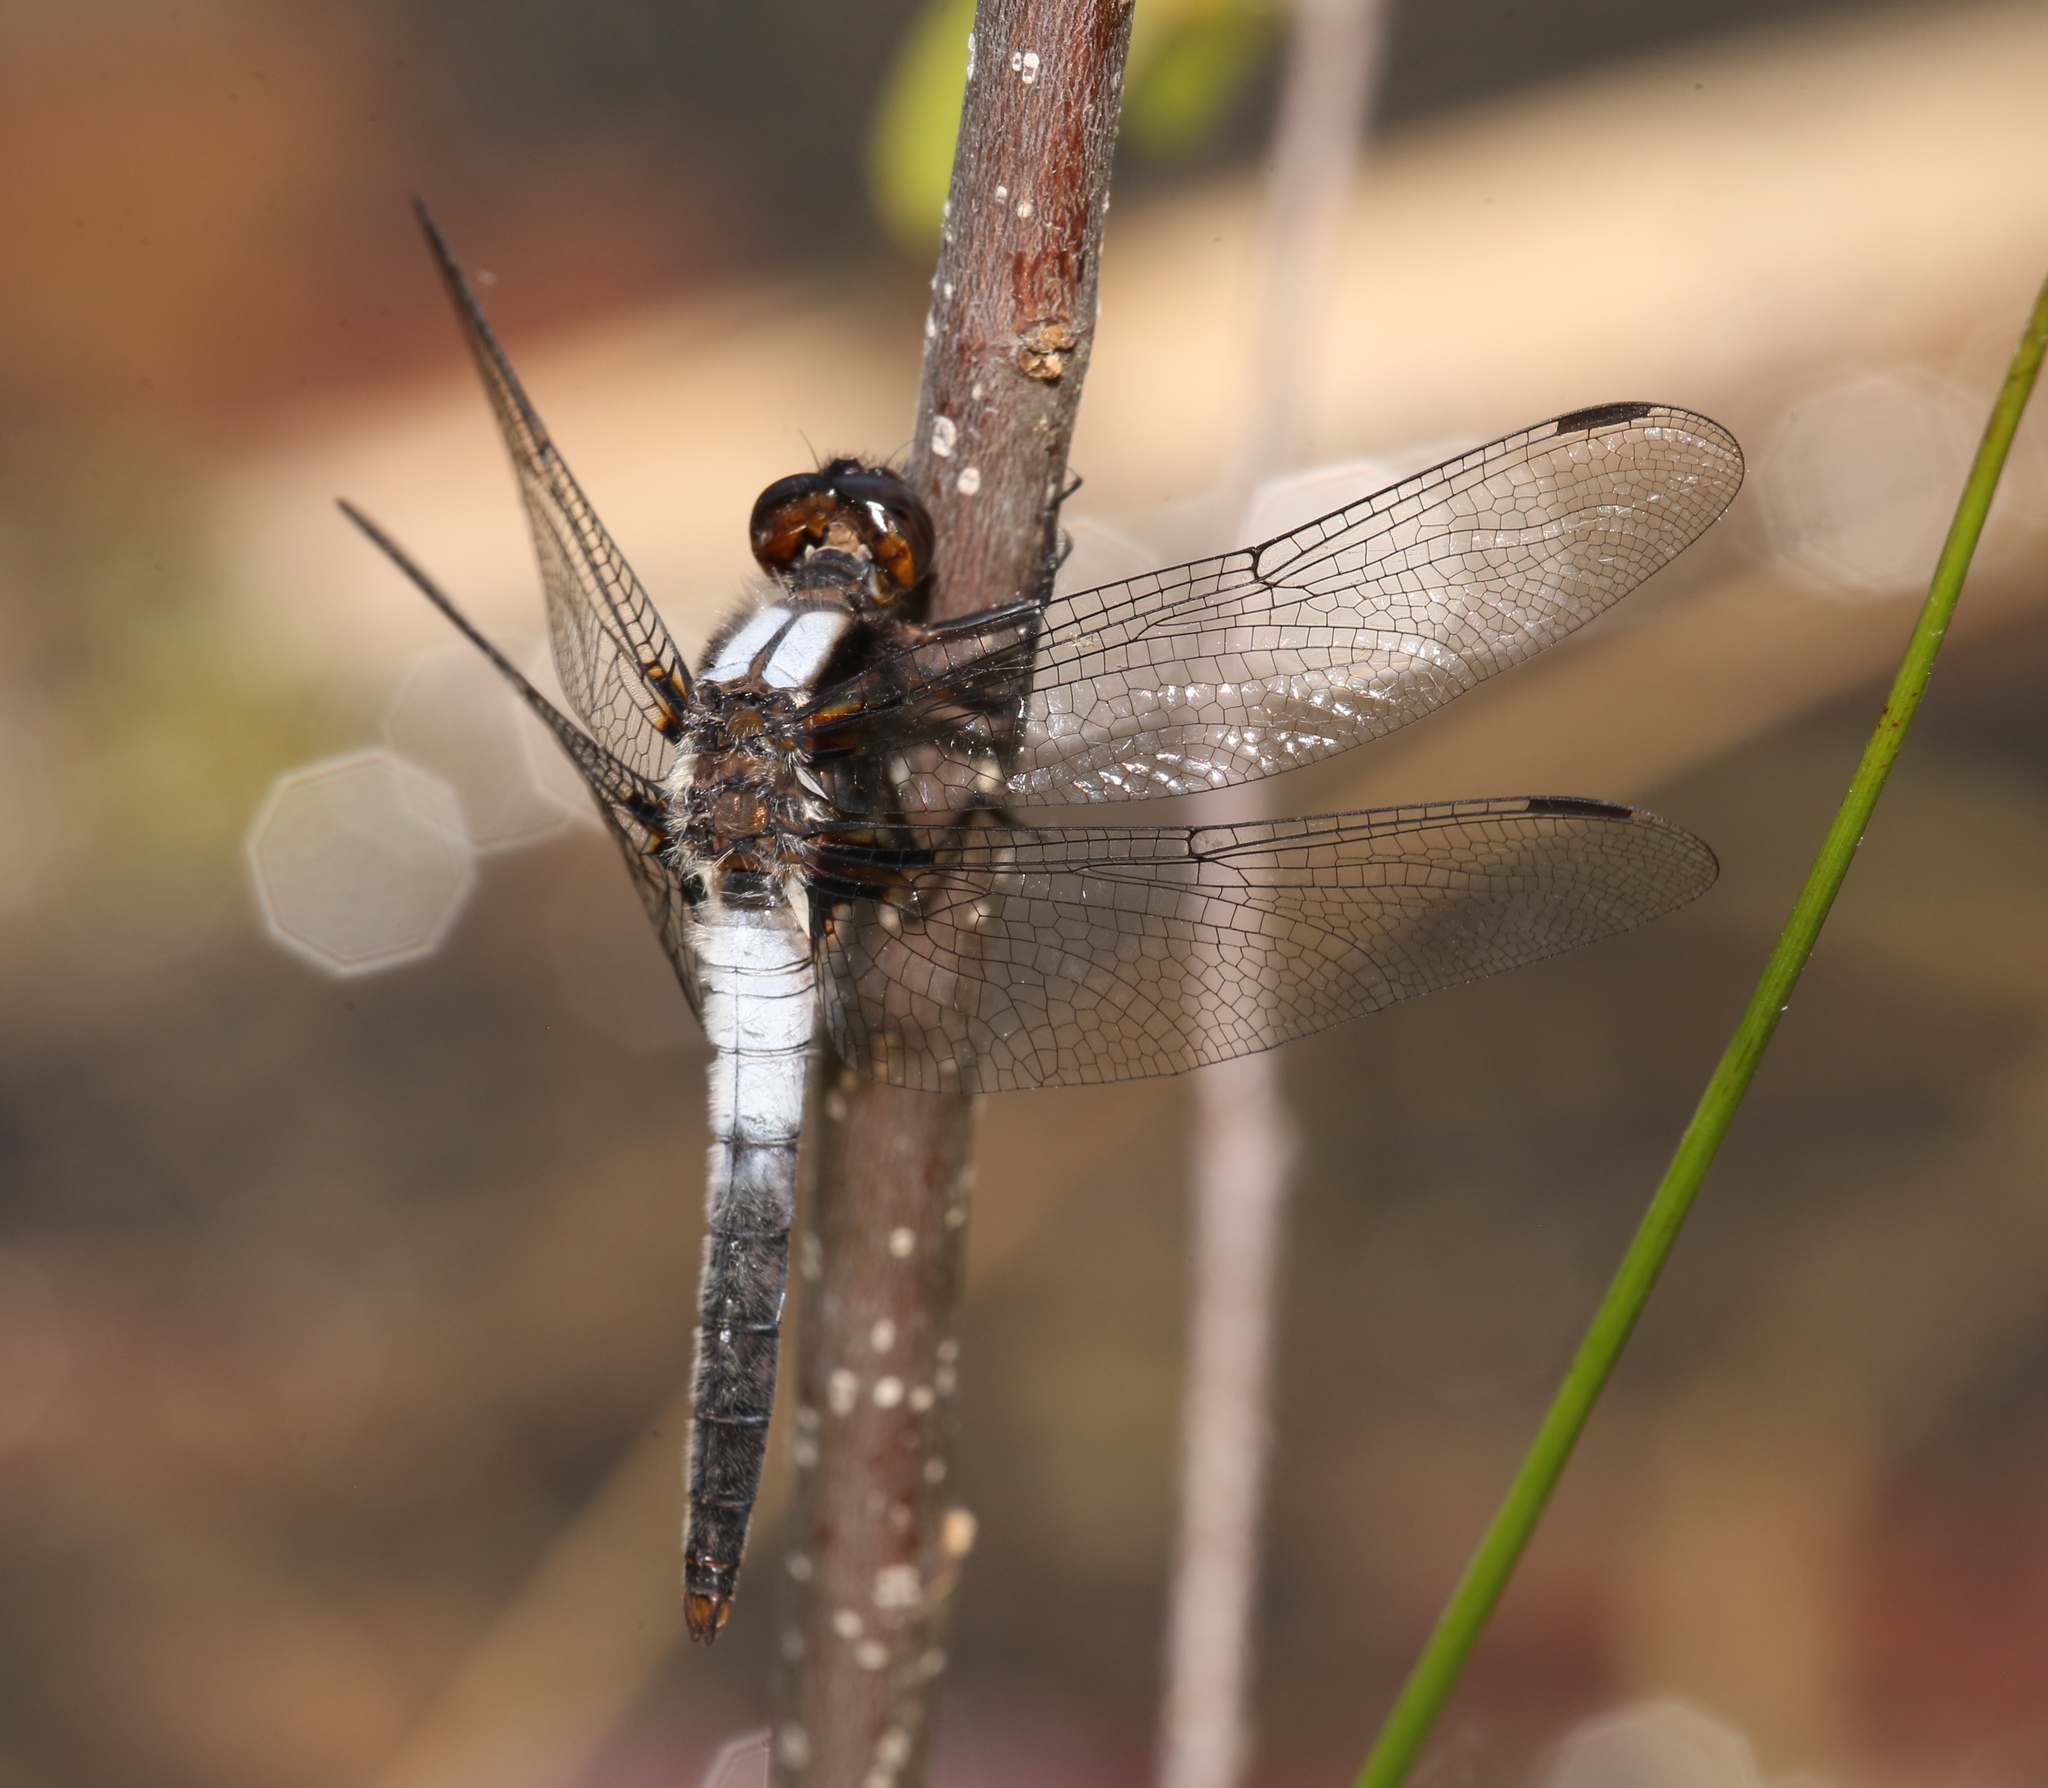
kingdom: Animalia
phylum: Arthropoda
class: Insecta
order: Odonata
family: Libellulidae
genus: Ladona
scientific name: Ladona julia
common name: Chalk-fronted corporal
